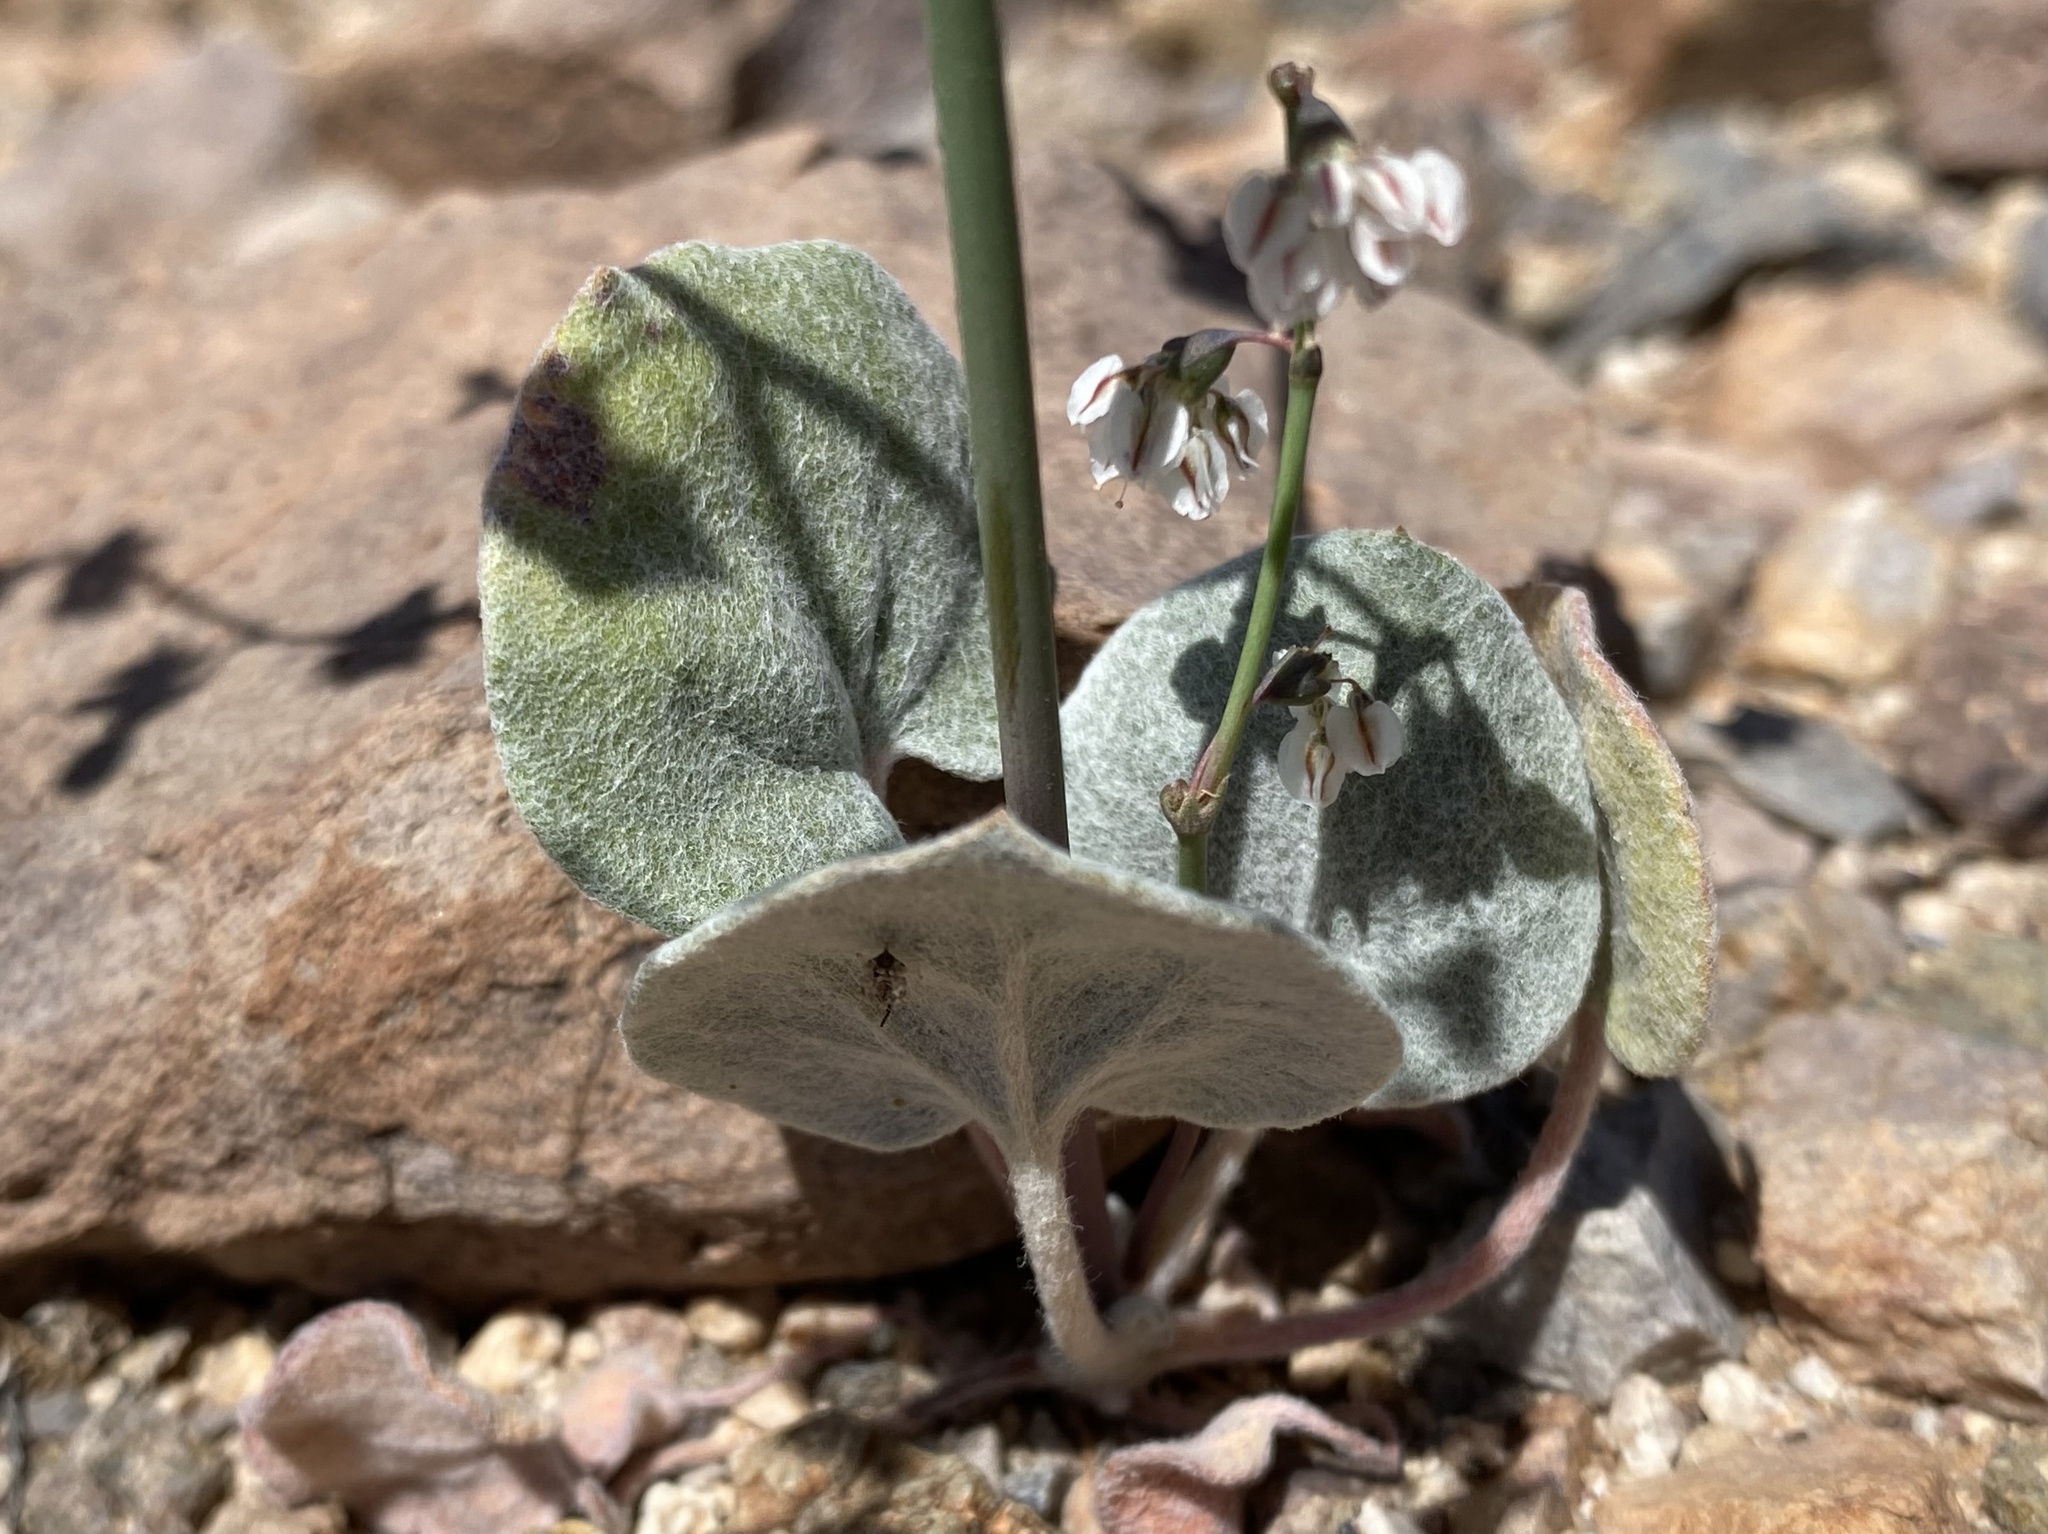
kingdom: Plantae
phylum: Tracheophyta
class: Magnoliopsida
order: Caryophyllales
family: Polygonaceae
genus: Eriogonum
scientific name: Eriogonum deflexum
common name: Skeleton-weed
